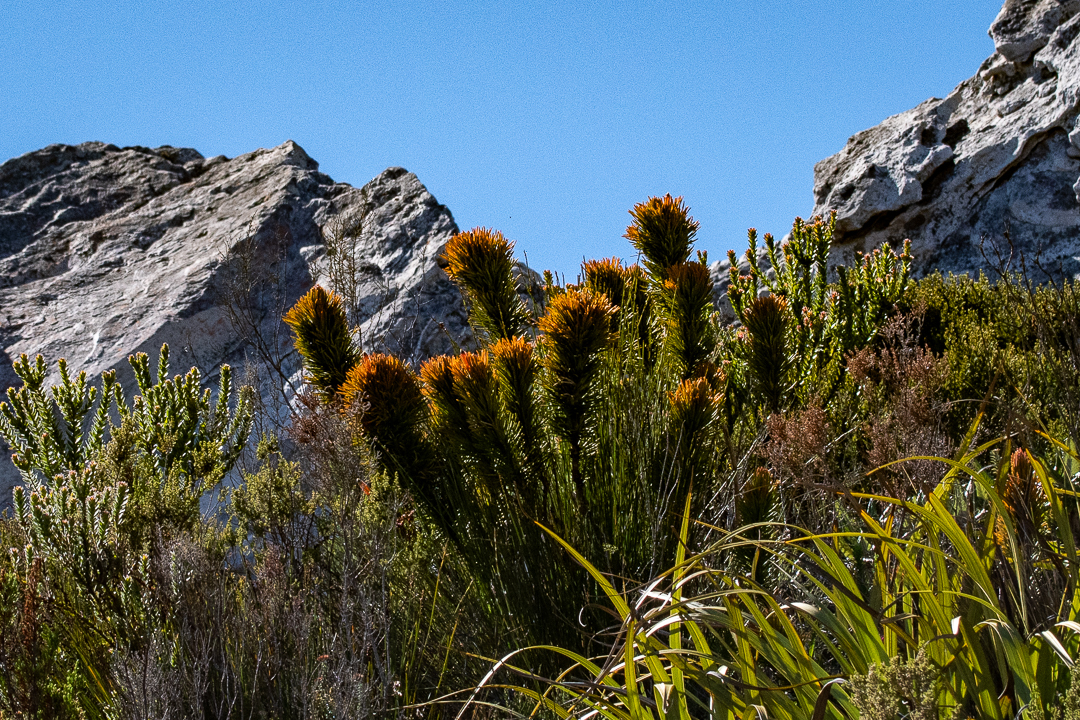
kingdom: Plantae
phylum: Tracheophyta
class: Magnoliopsida
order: Lamiales
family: Stilbaceae
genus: Retzia
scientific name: Retzia capensis
